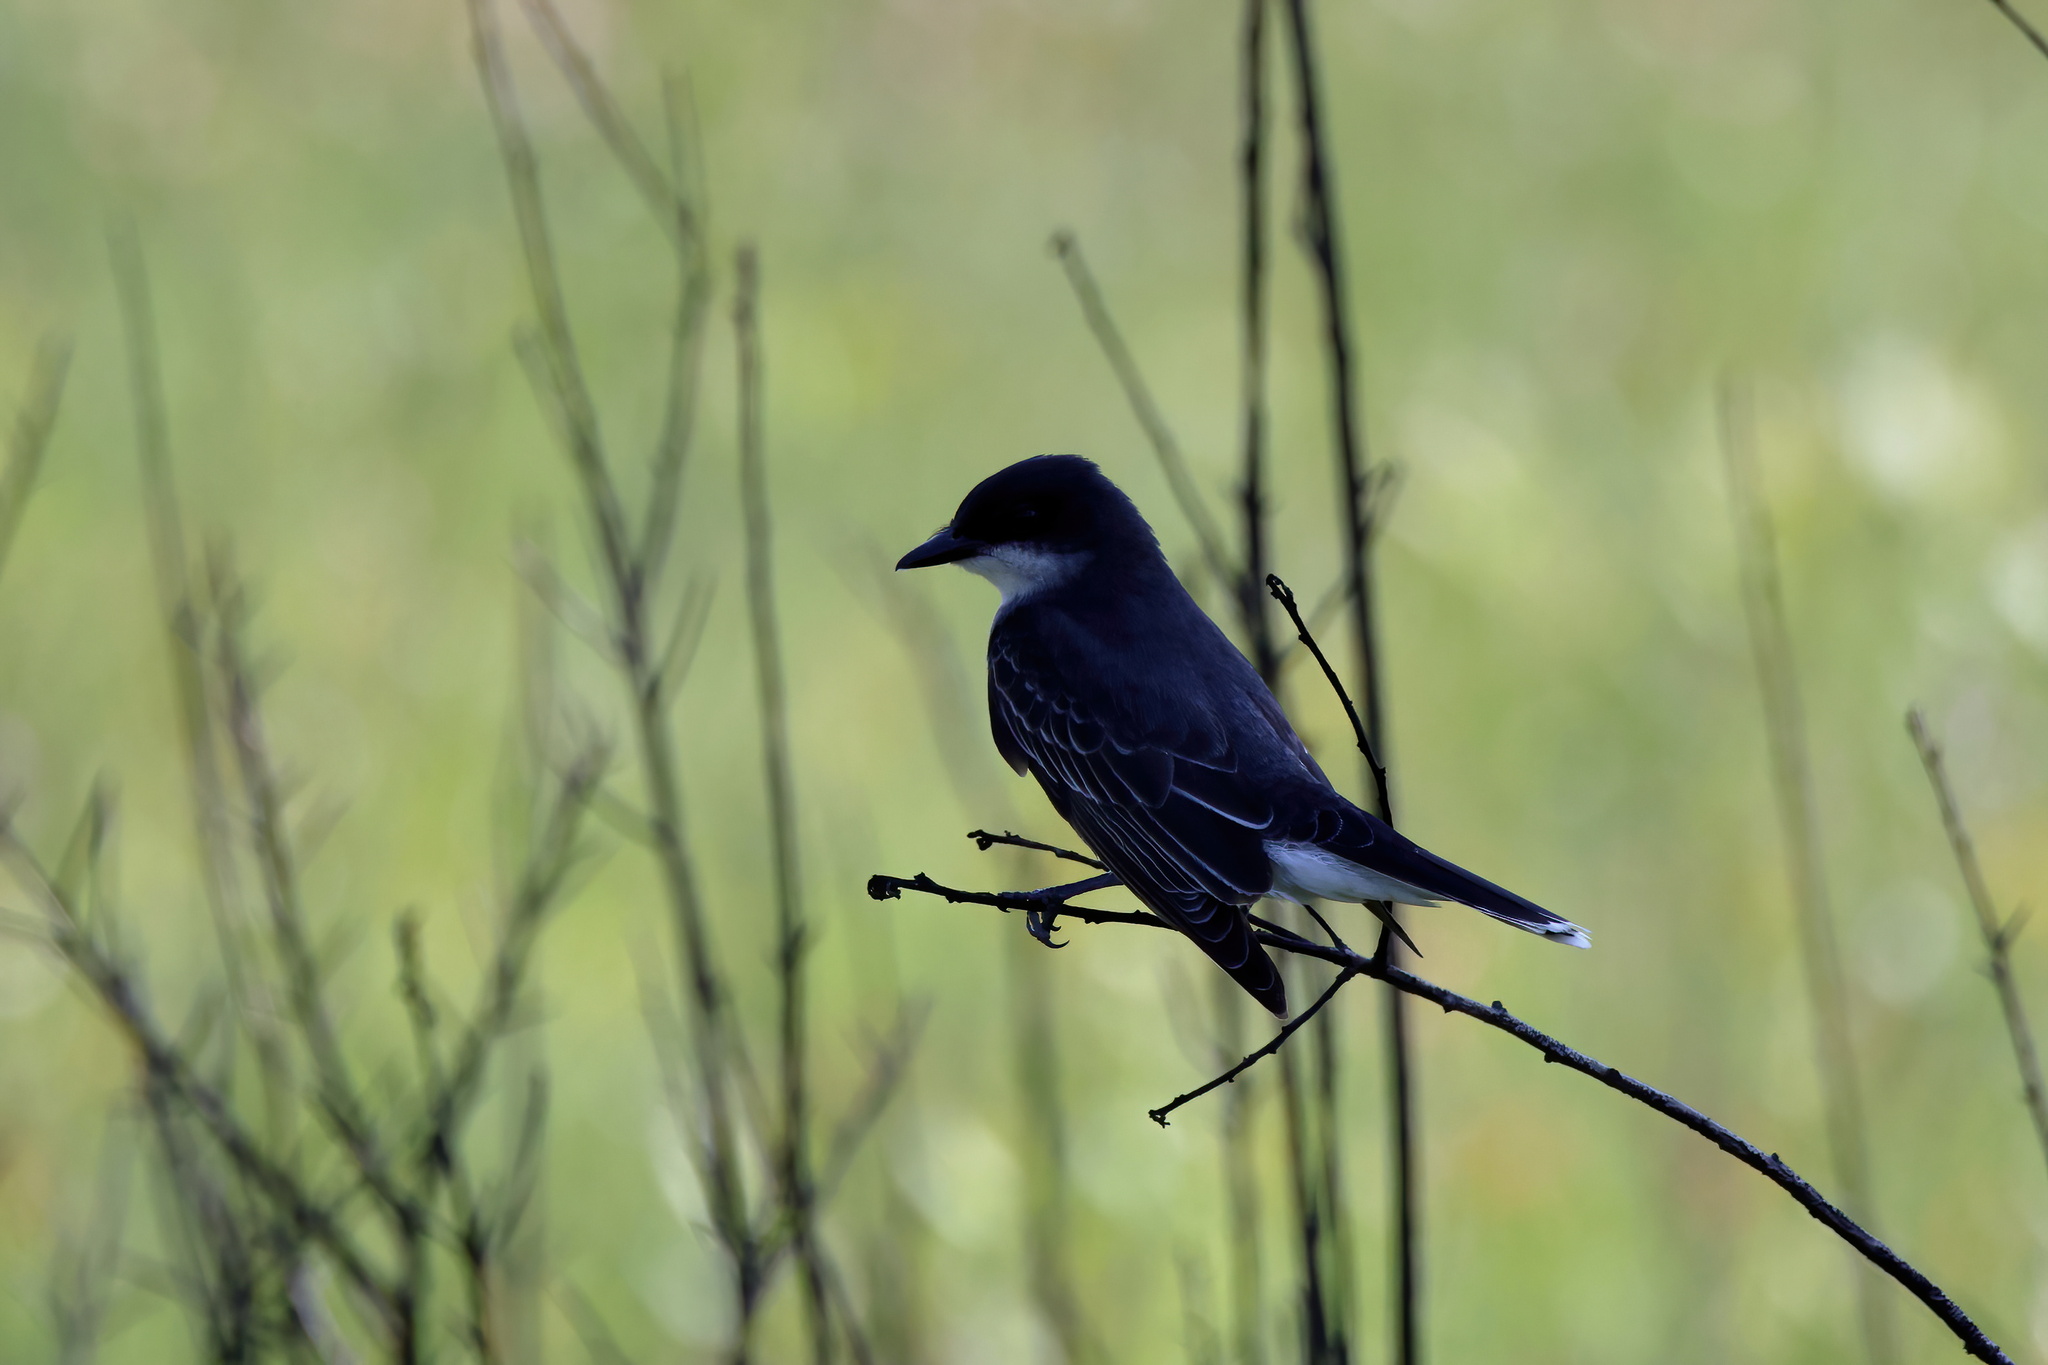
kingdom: Animalia
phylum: Chordata
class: Aves
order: Passeriformes
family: Tyrannidae
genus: Tyrannus
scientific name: Tyrannus tyrannus
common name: Eastern kingbird
